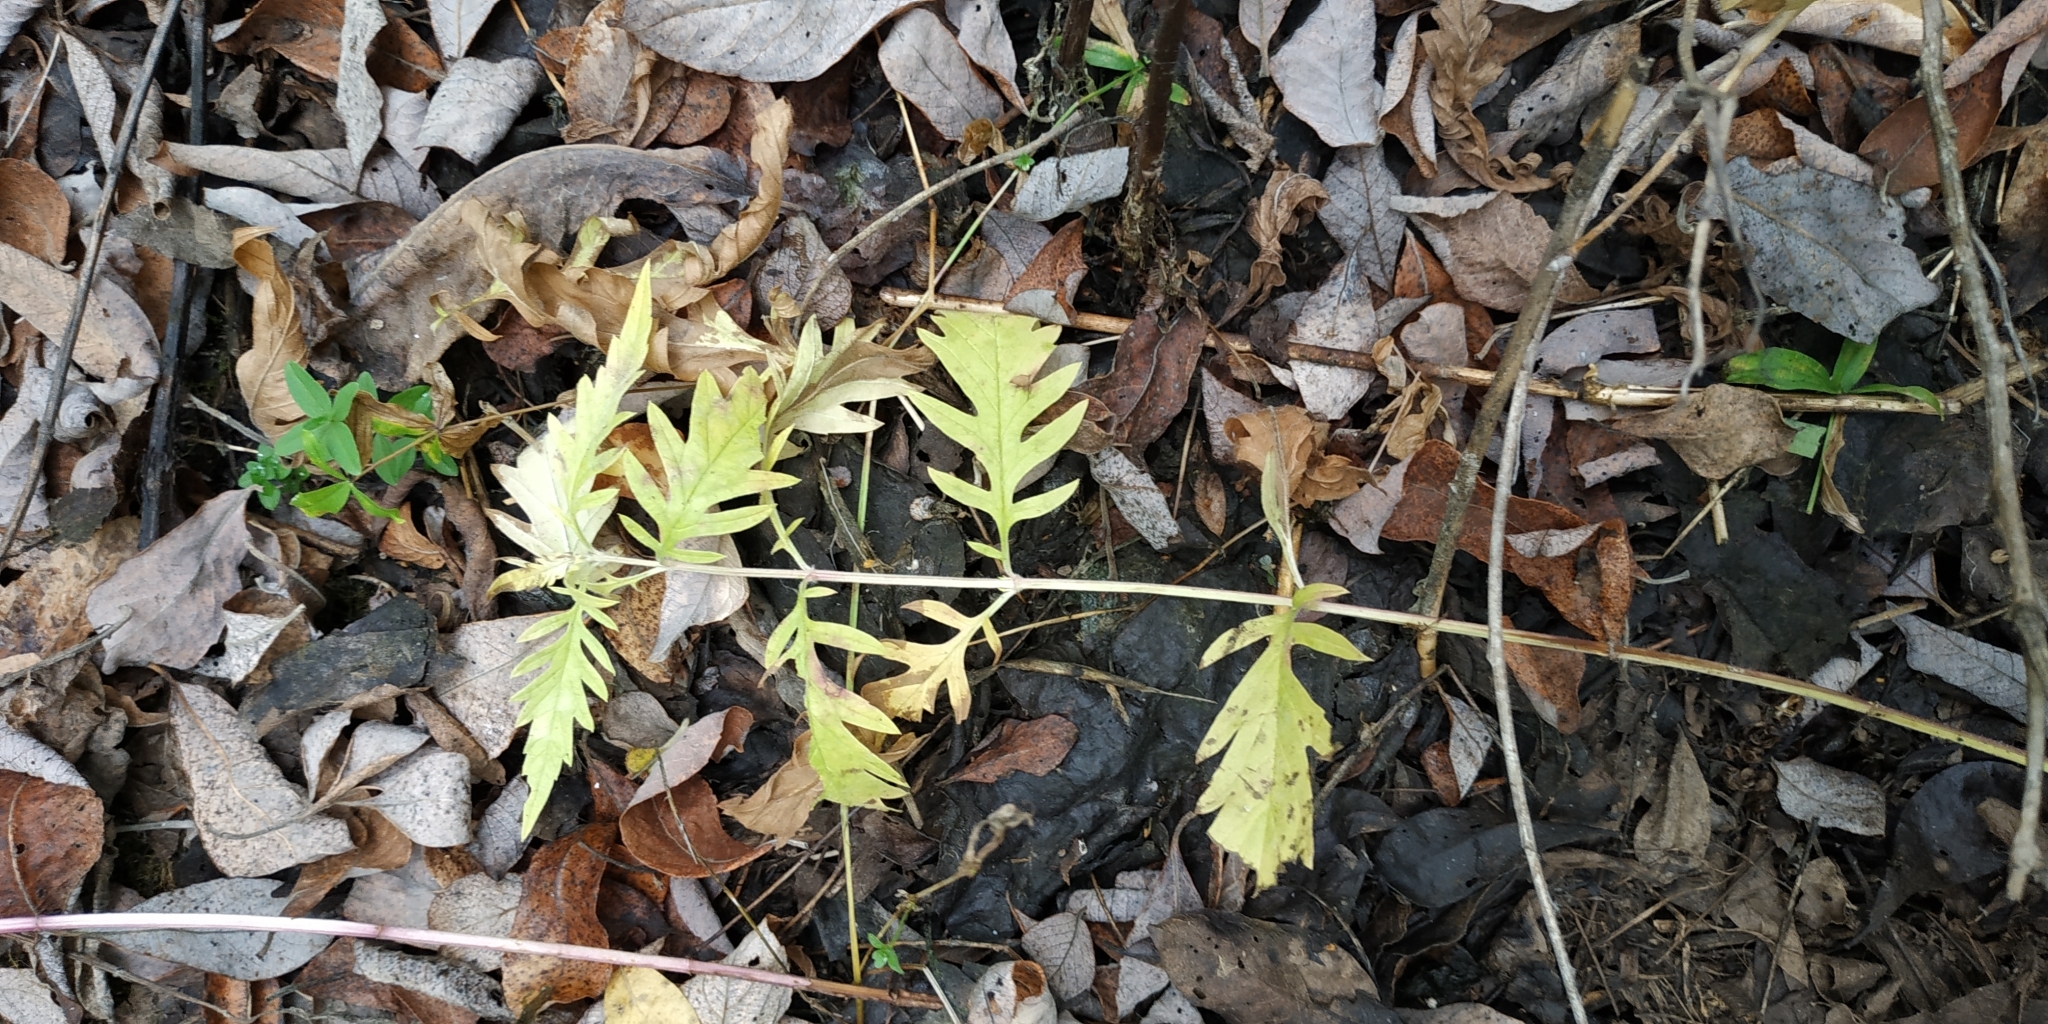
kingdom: Plantae
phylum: Tracheophyta
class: Magnoliopsida
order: Lamiales
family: Lamiaceae
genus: Lycopus
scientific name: Lycopus exaltatus
